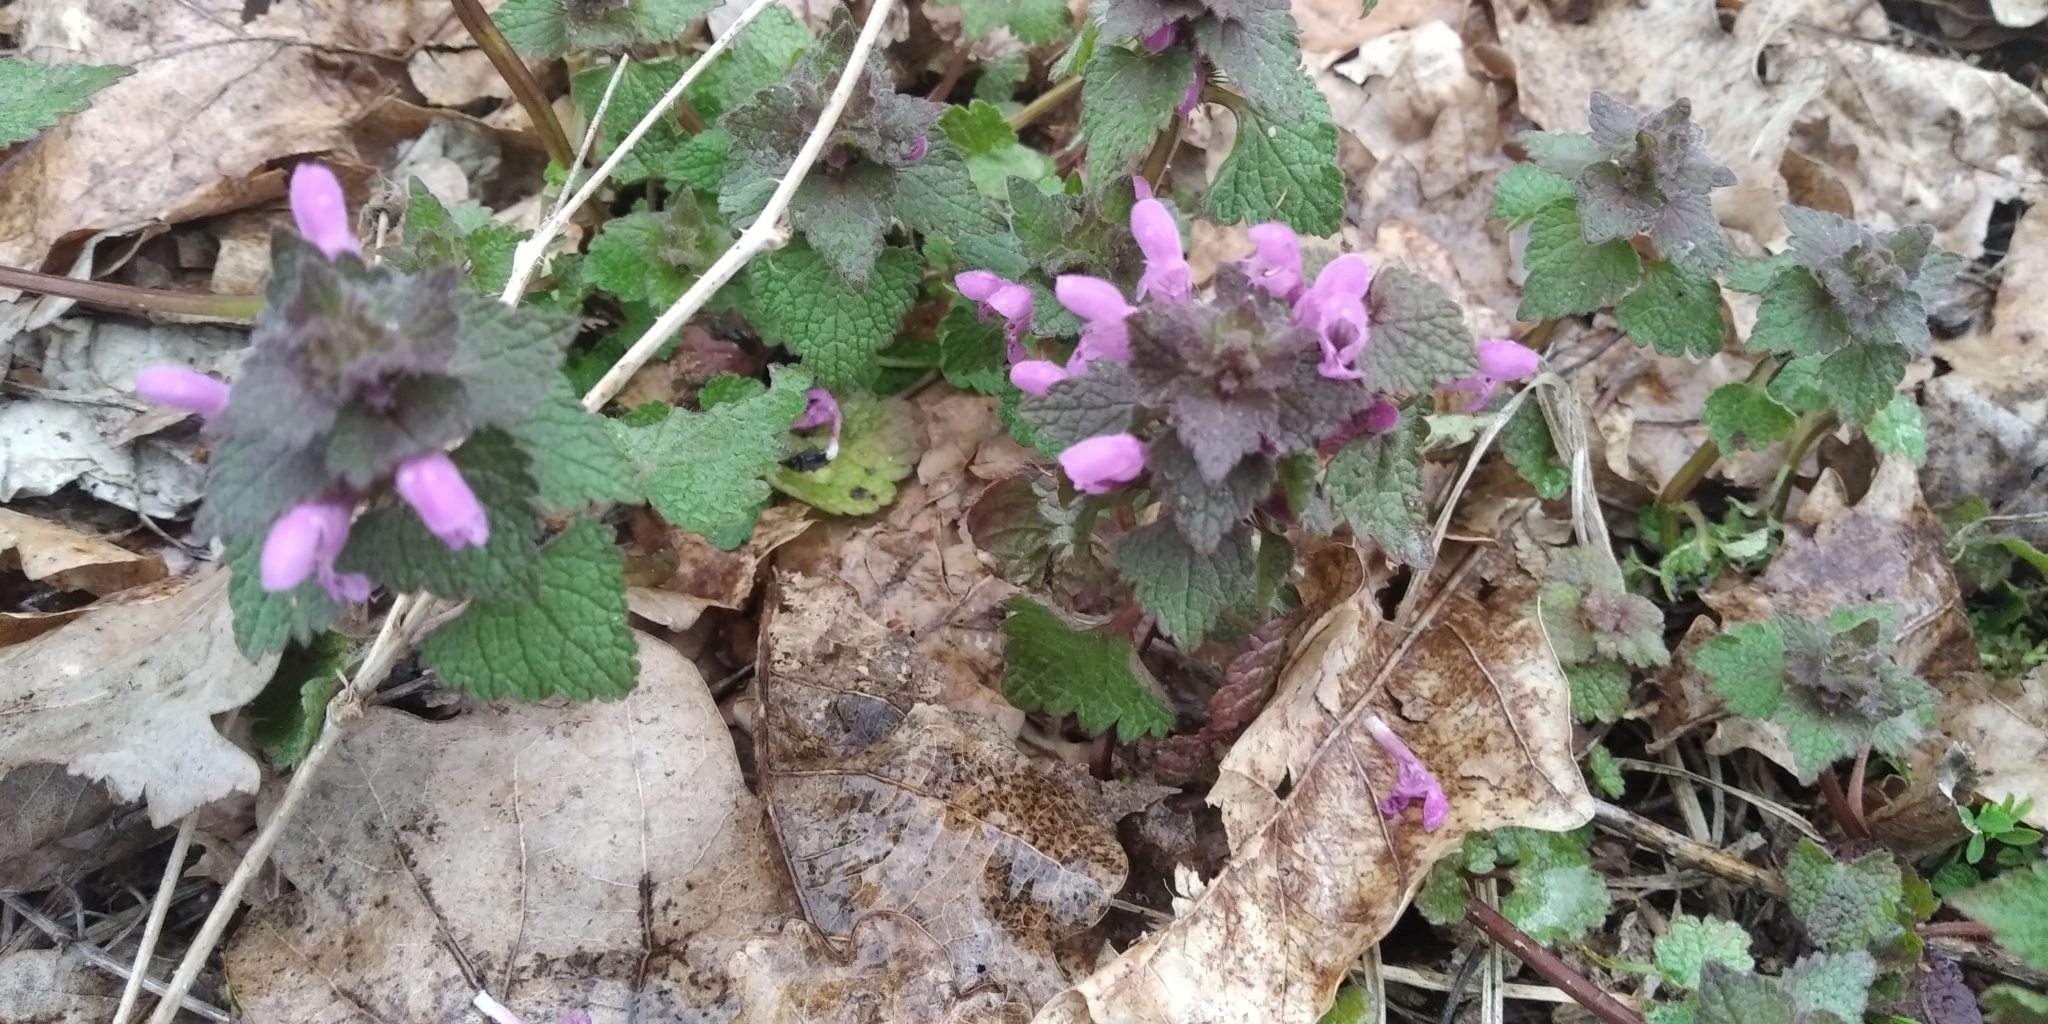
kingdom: Plantae
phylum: Tracheophyta
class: Magnoliopsida
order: Lamiales
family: Lamiaceae
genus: Lamium
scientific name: Lamium purpureum
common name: Red dead-nettle
